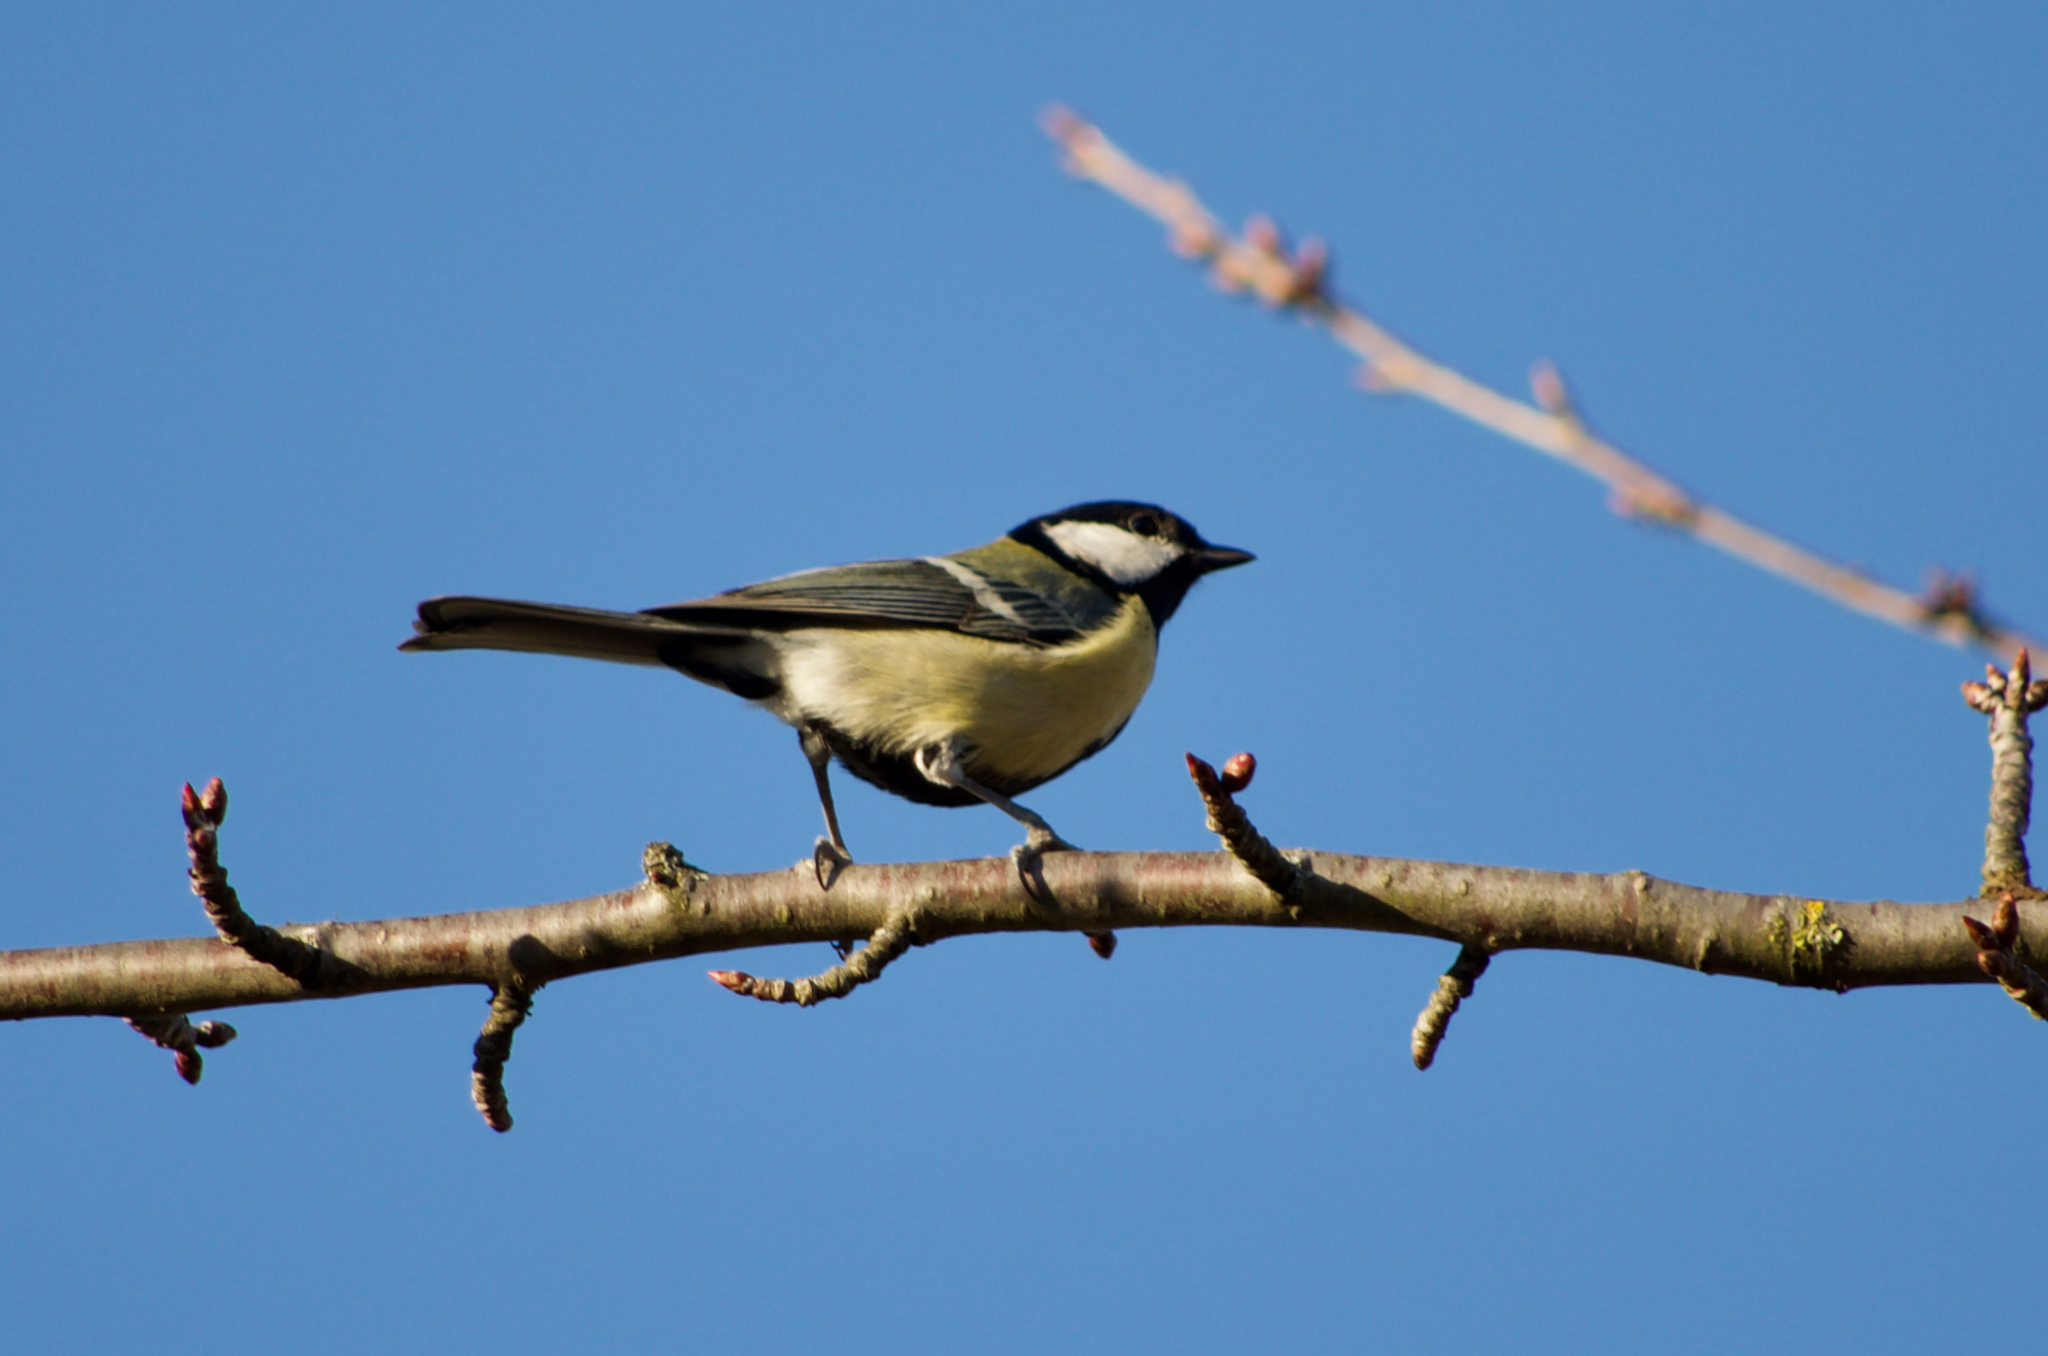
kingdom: Animalia
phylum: Chordata
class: Aves
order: Passeriformes
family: Paridae
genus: Parus
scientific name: Parus major
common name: Great tit
